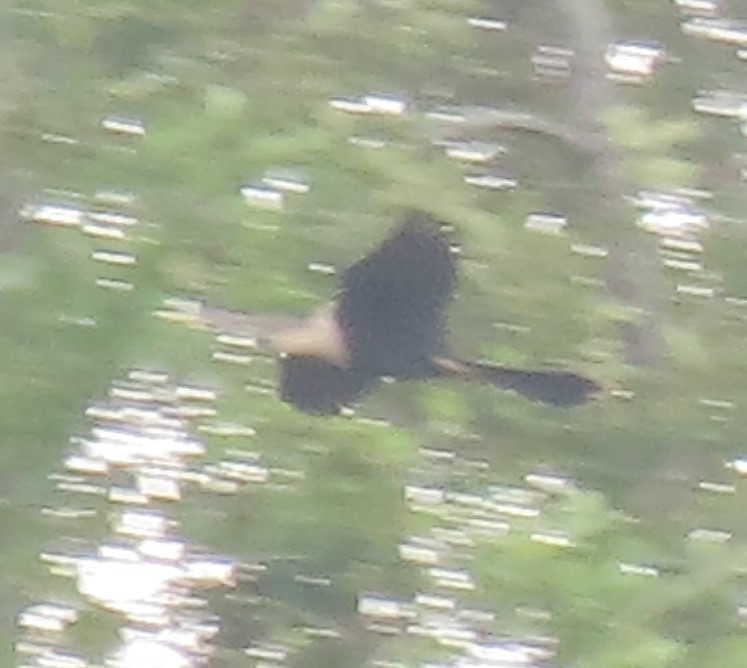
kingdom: Animalia
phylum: Chordata
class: Aves
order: Suliformes
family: Anhingidae
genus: Anhinga
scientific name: Anhinga anhinga
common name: Anhinga
